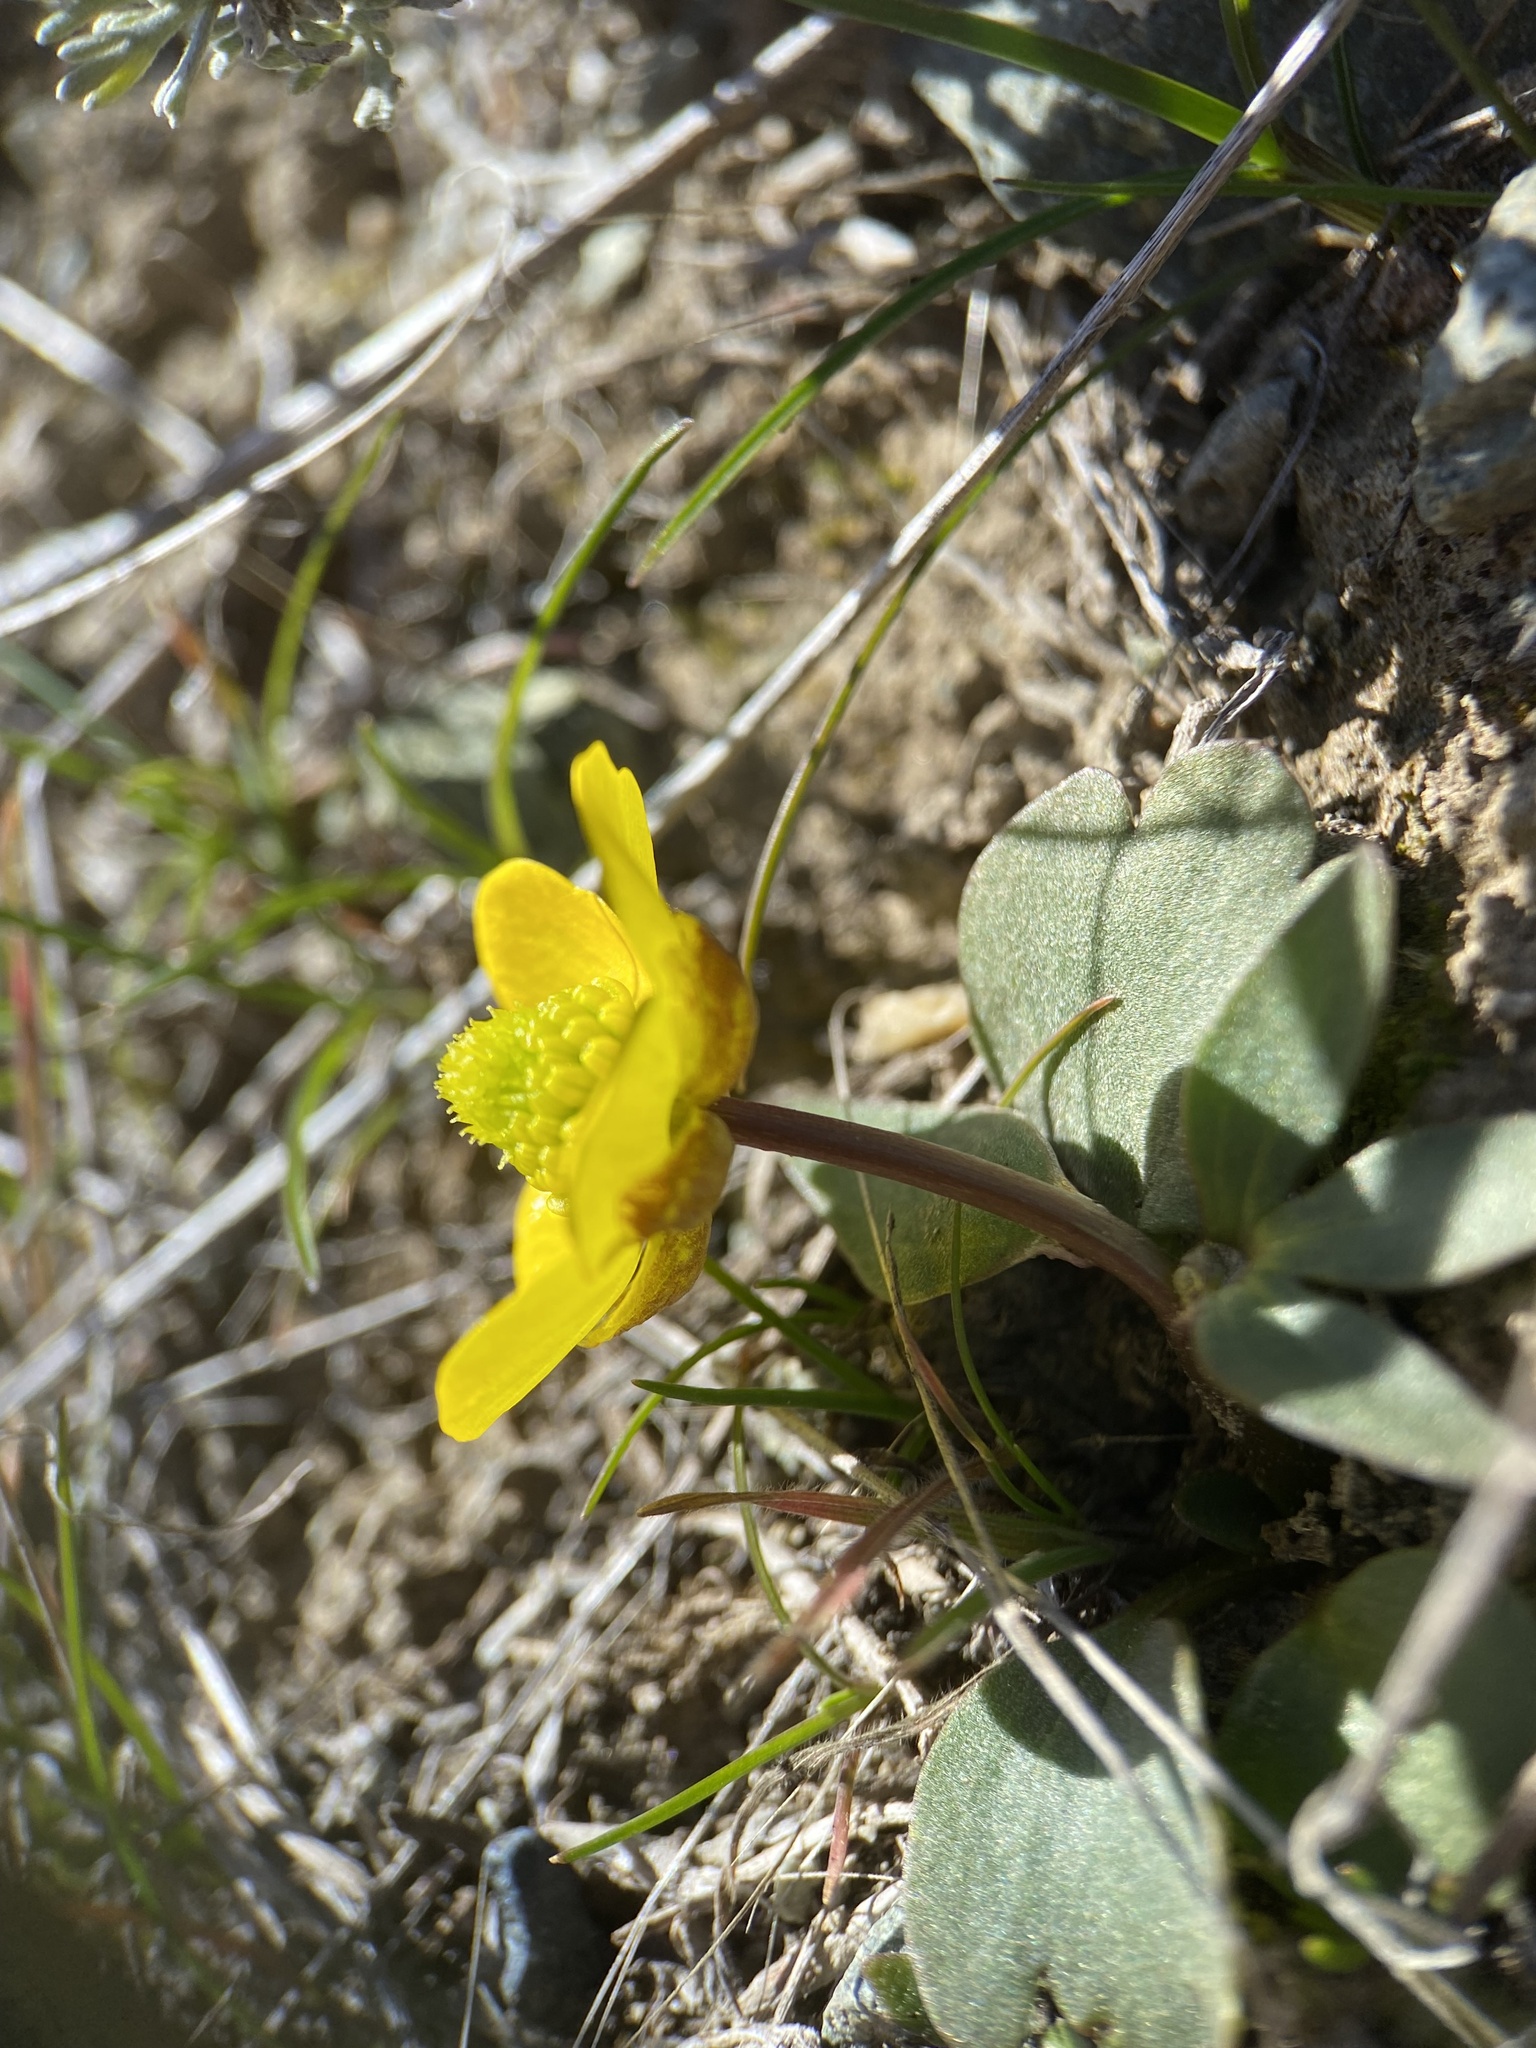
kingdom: Plantae
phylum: Tracheophyta
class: Magnoliopsida
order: Ranunculales
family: Ranunculaceae
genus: Ranunculus
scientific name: Ranunculus glaberrimus
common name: Sagebrush buttercup
